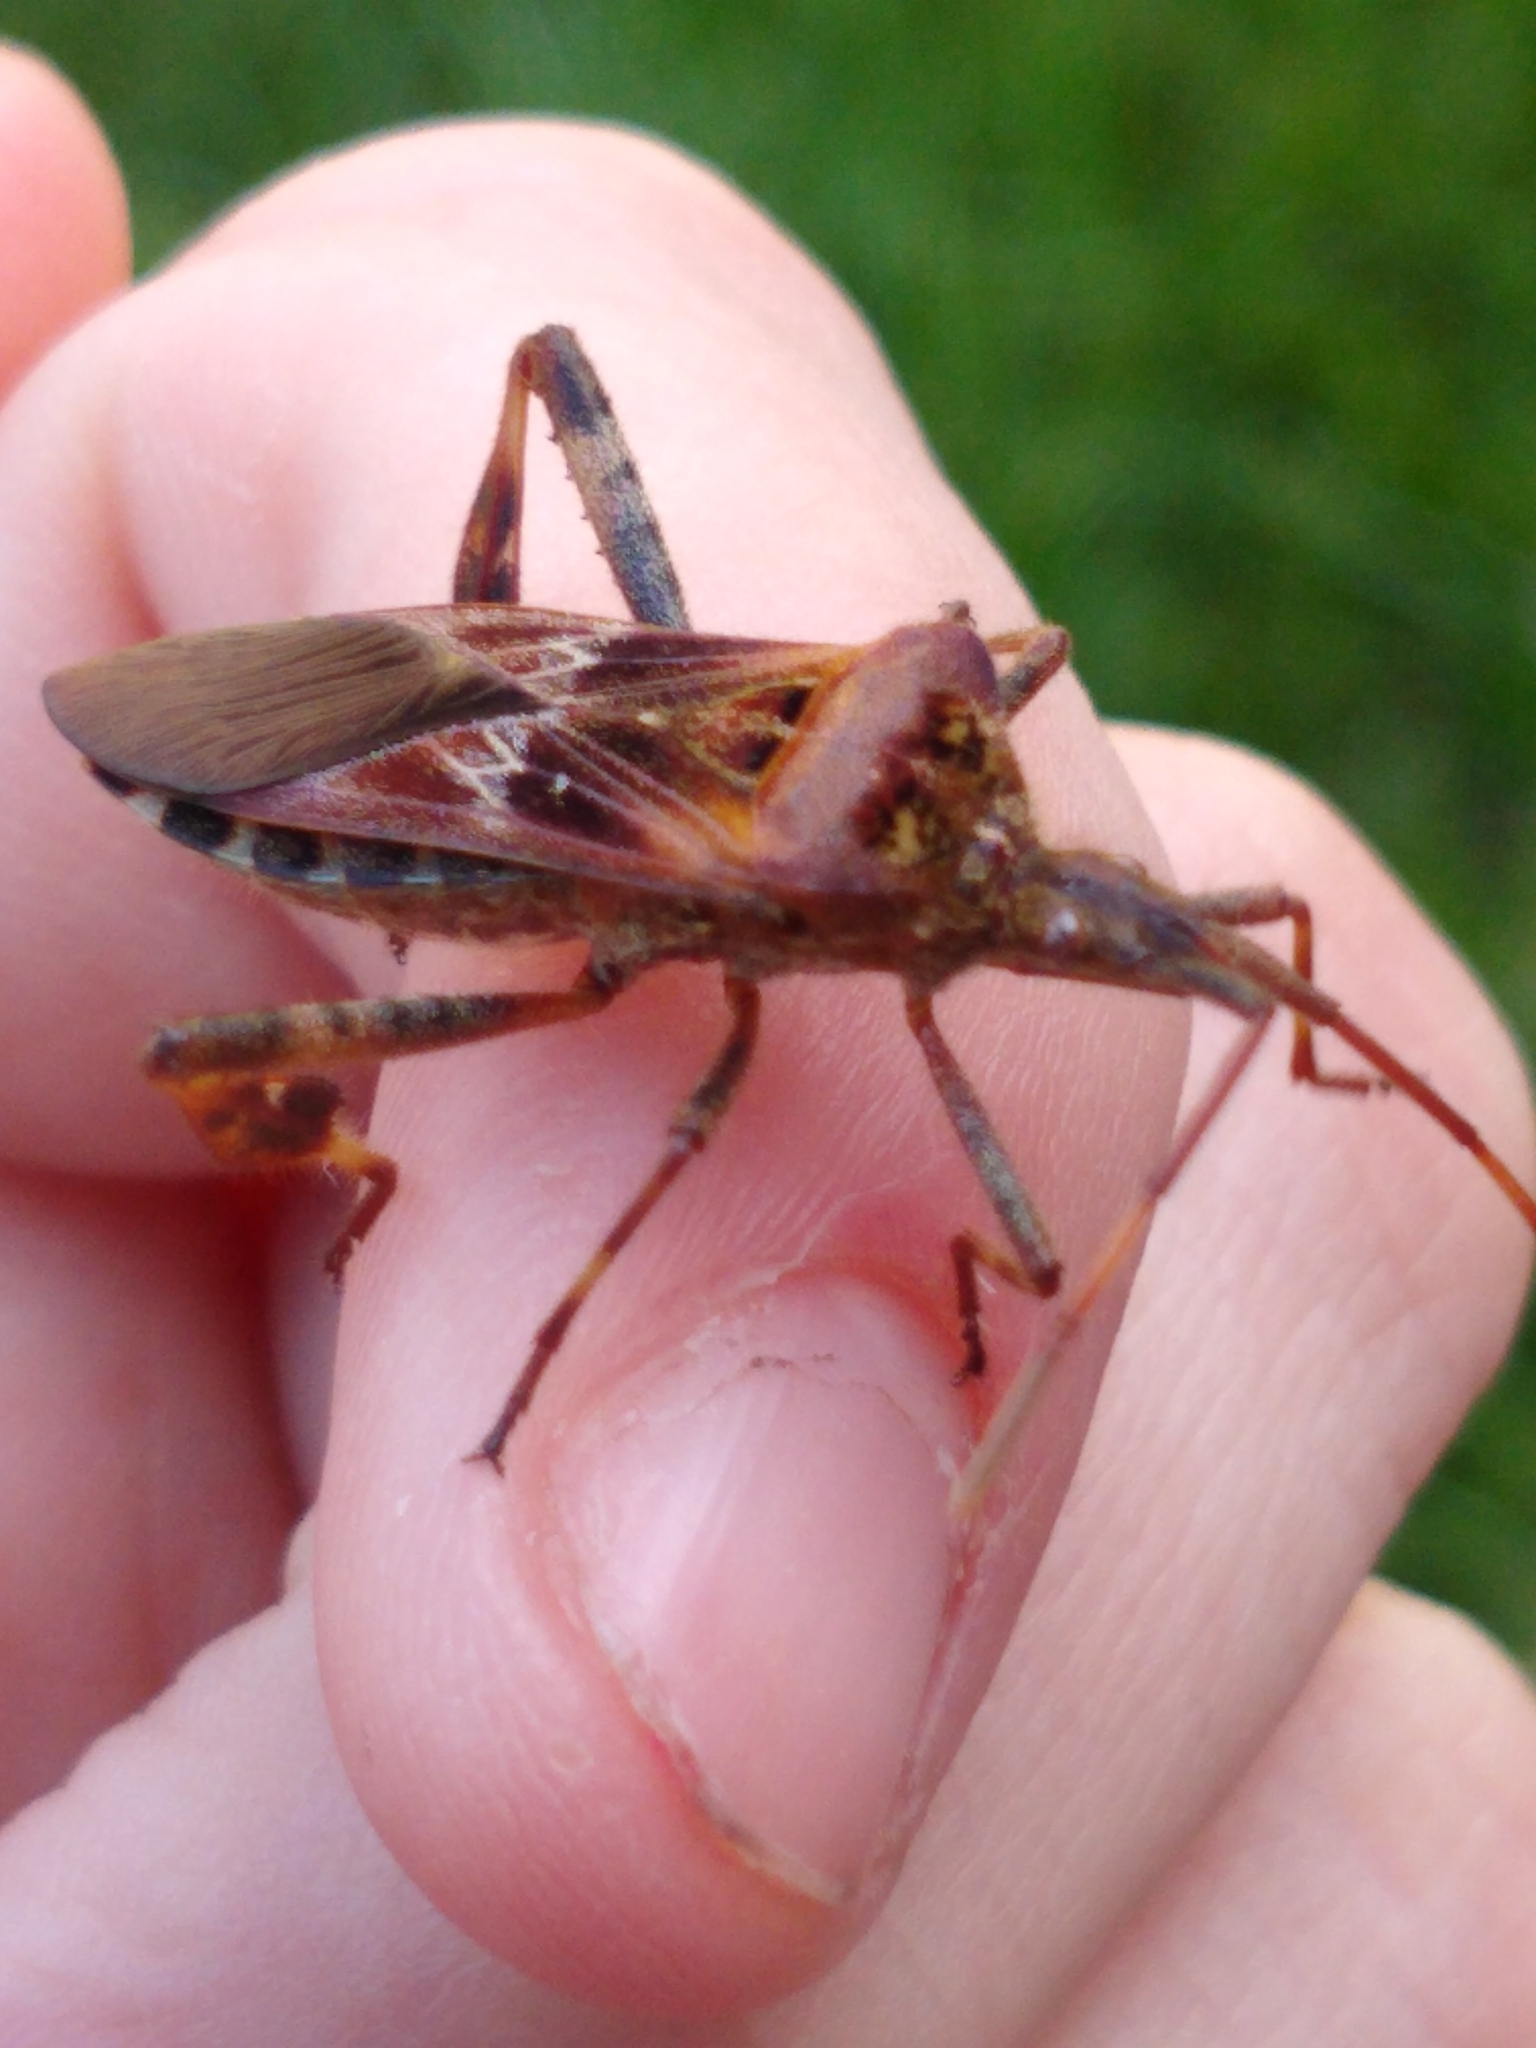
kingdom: Animalia
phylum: Arthropoda
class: Insecta
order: Hemiptera
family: Coreidae
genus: Leptoglossus
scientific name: Leptoglossus occidentalis
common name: Western conifer-seed bug
